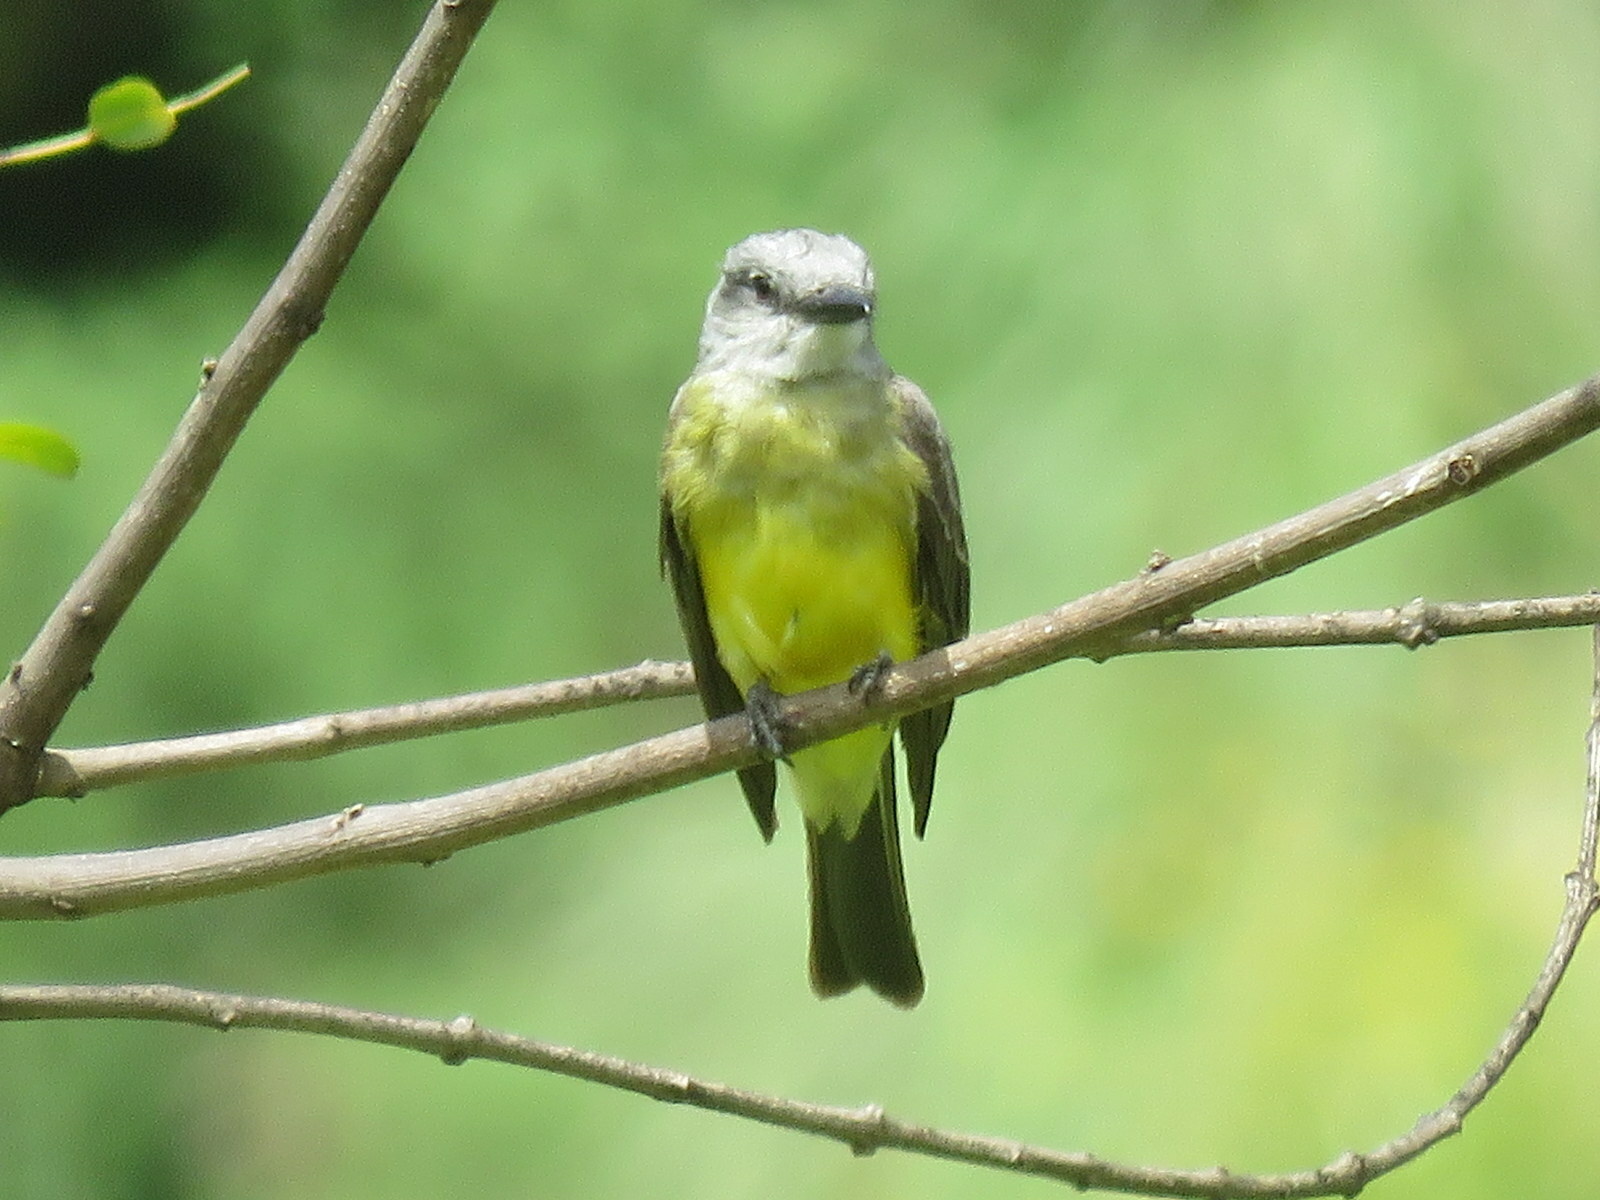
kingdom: Animalia
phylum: Chordata
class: Aves
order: Passeriformes
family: Tyrannidae
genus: Tyrannus
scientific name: Tyrannus melancholicus
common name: Tropical kingbird
